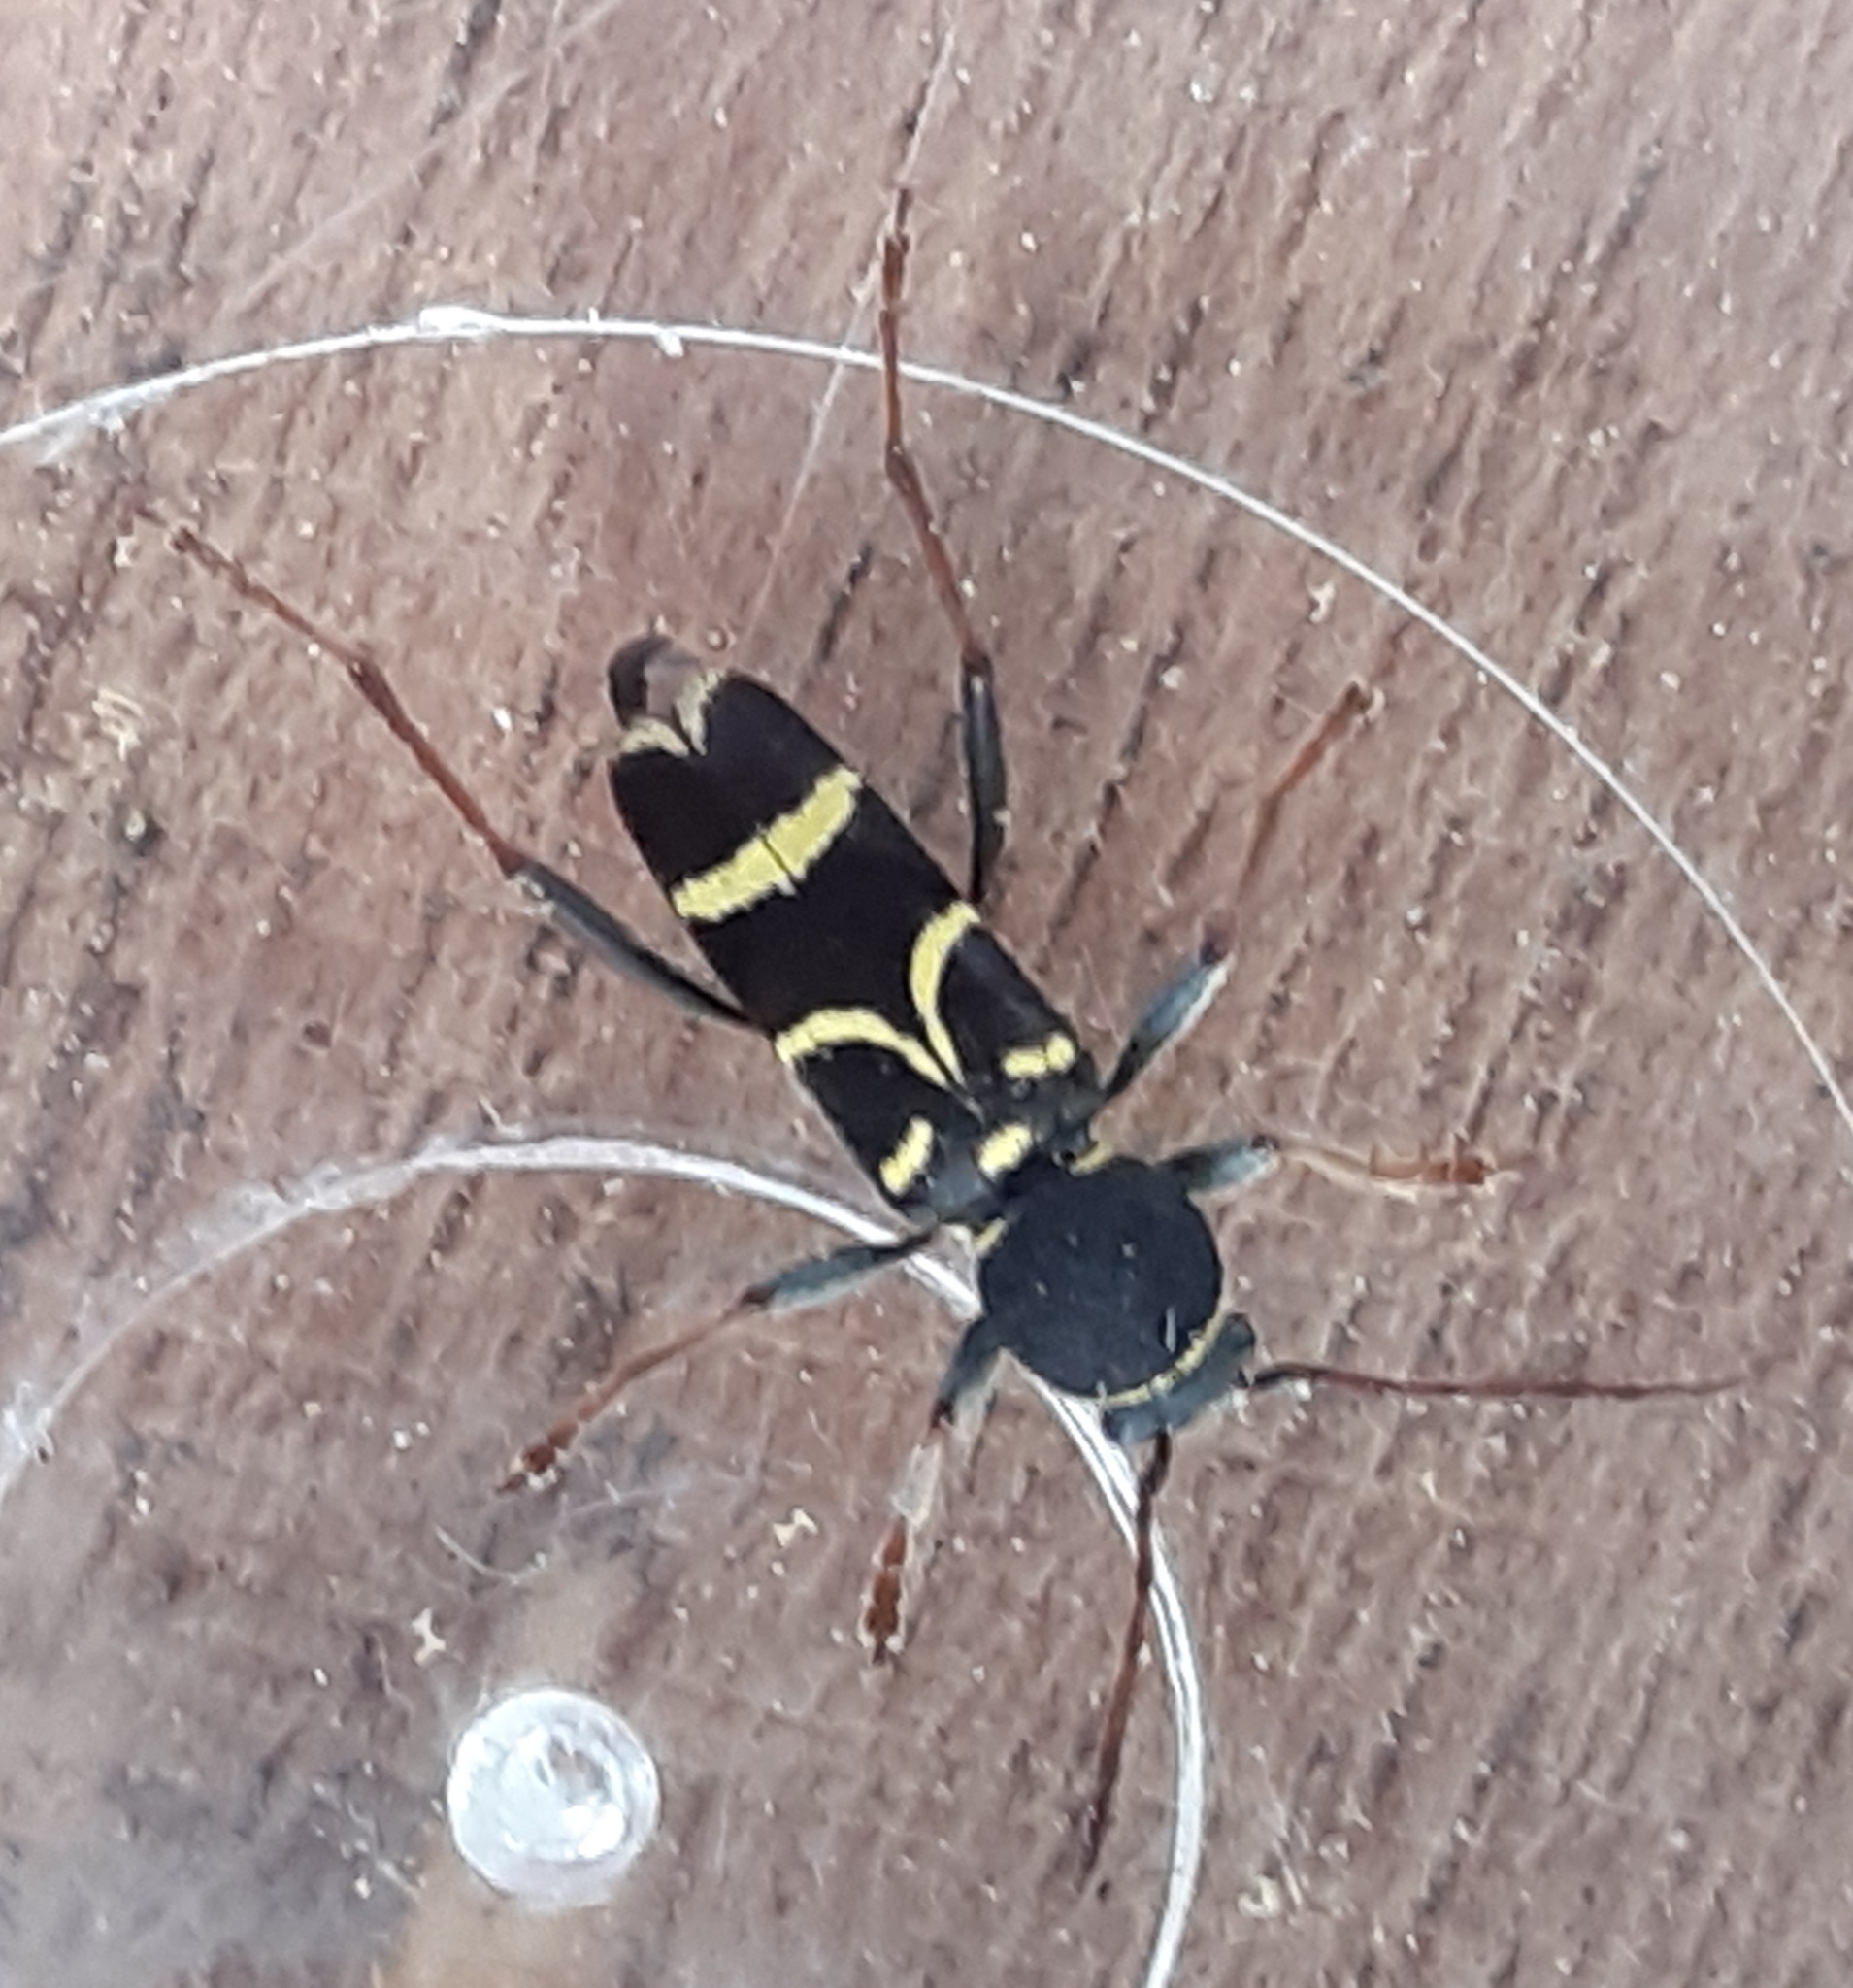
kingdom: Animalia
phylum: Arthropoda
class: Insecta
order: Coleoptera
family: Cerambycidae
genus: Clytus
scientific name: Clytus lama
